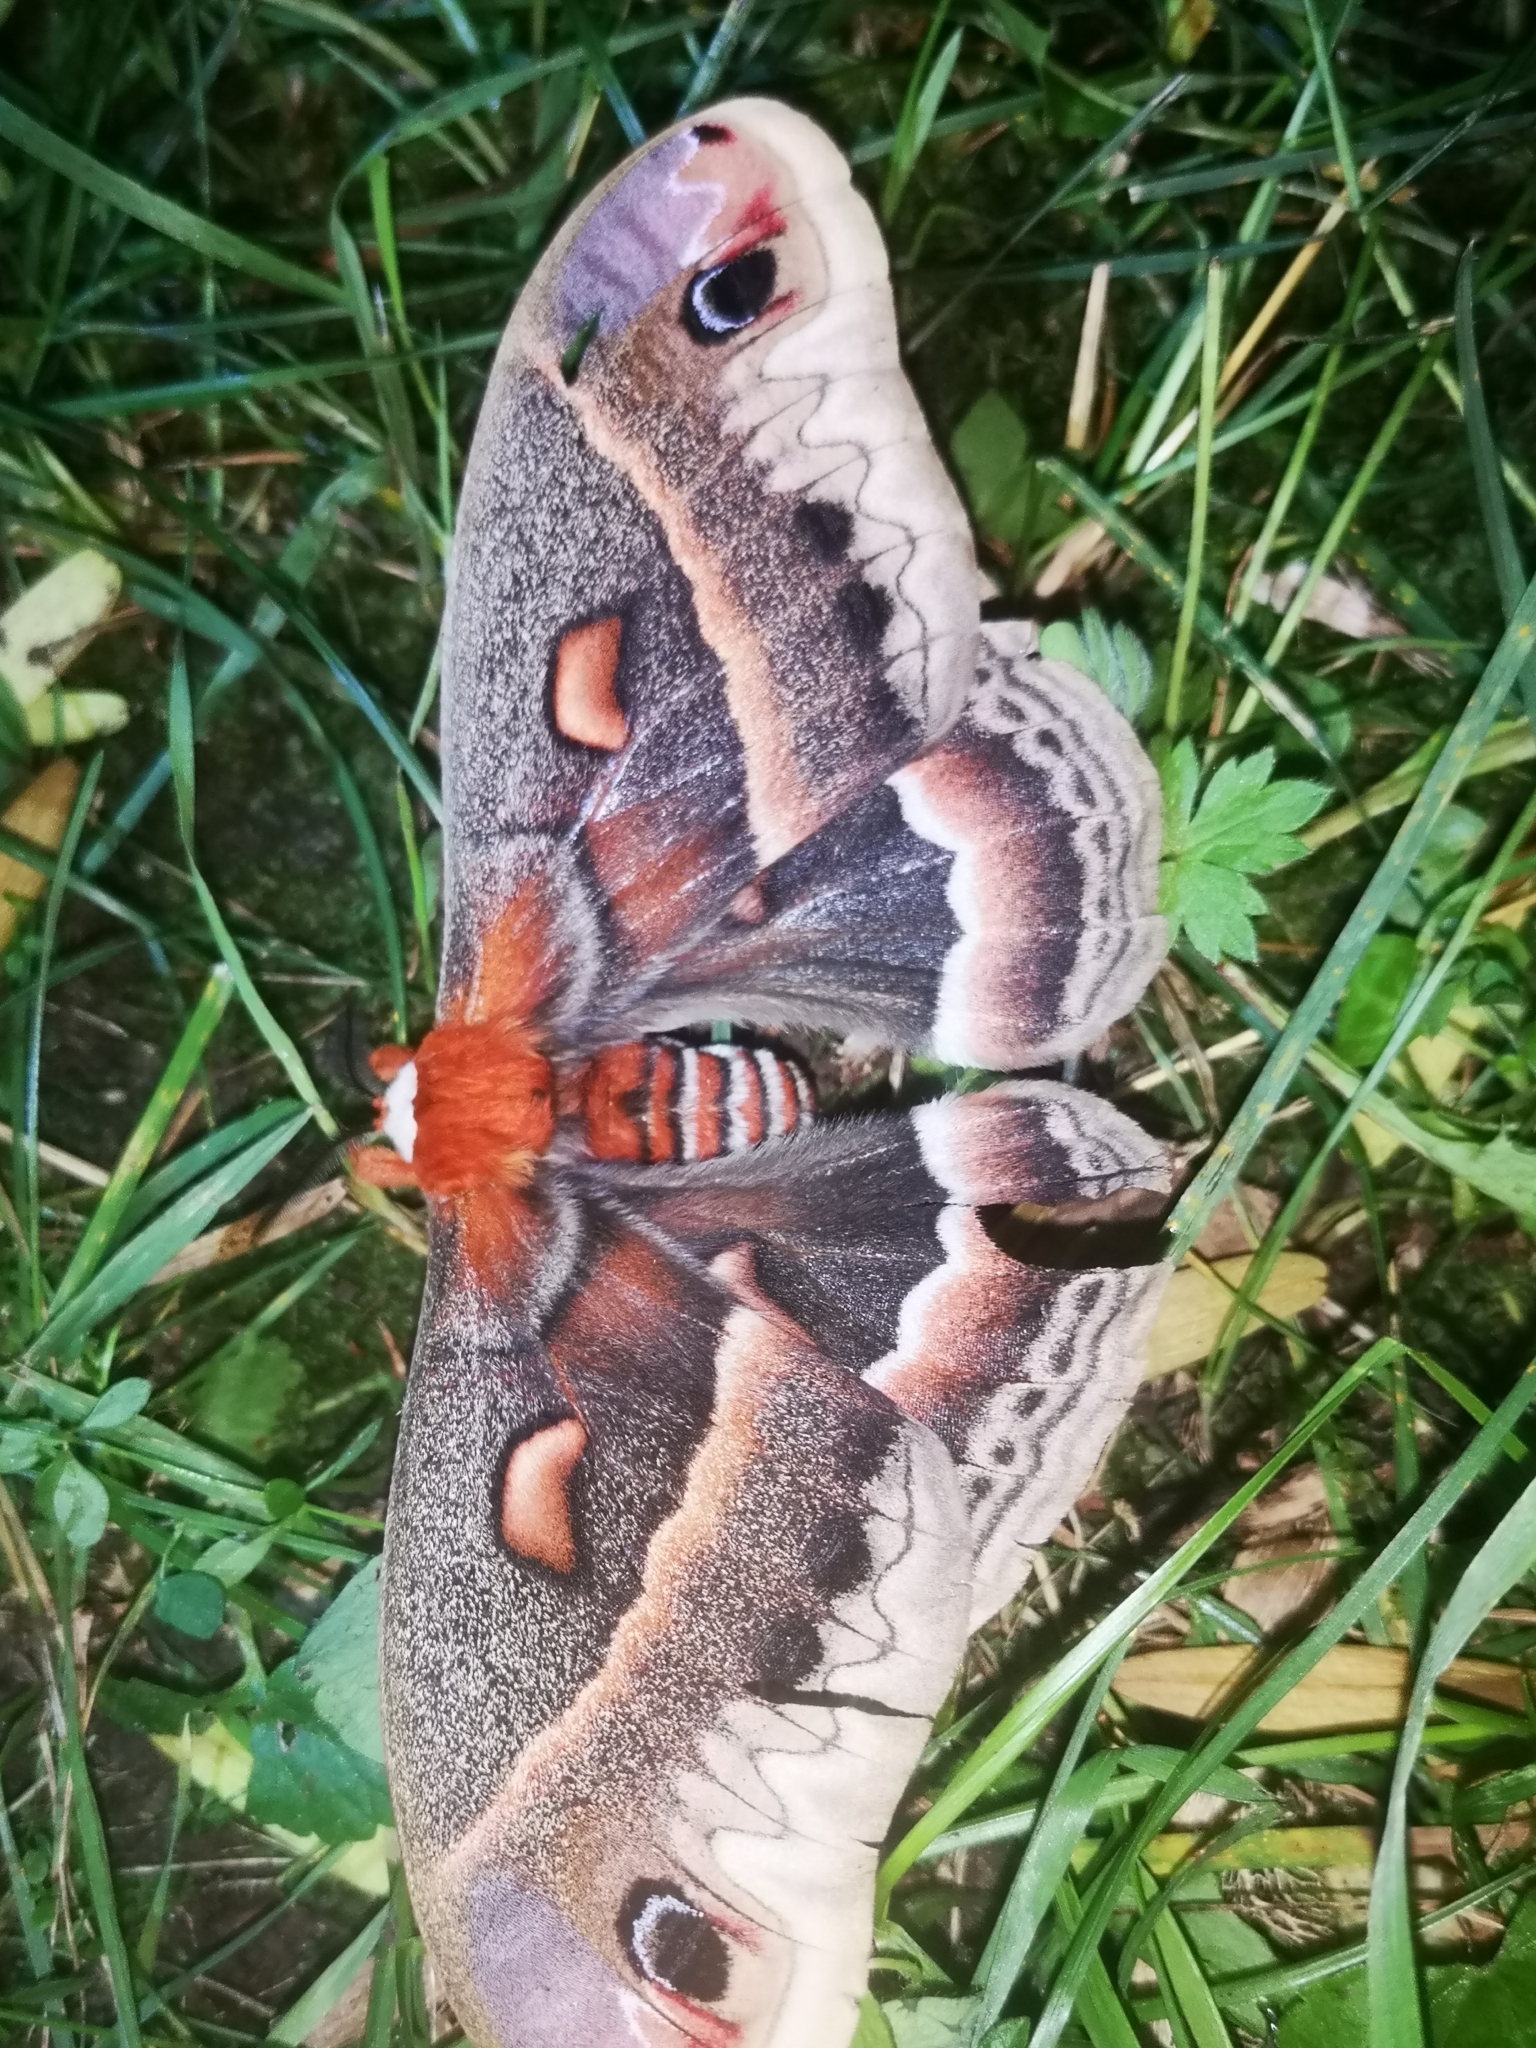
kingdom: Animalia
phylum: Arthropoda
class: Insecta
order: Lepidoptera
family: Saturniidae
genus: Hyalophora
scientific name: Hyalophora cecropia
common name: Cecropia silkmoth
